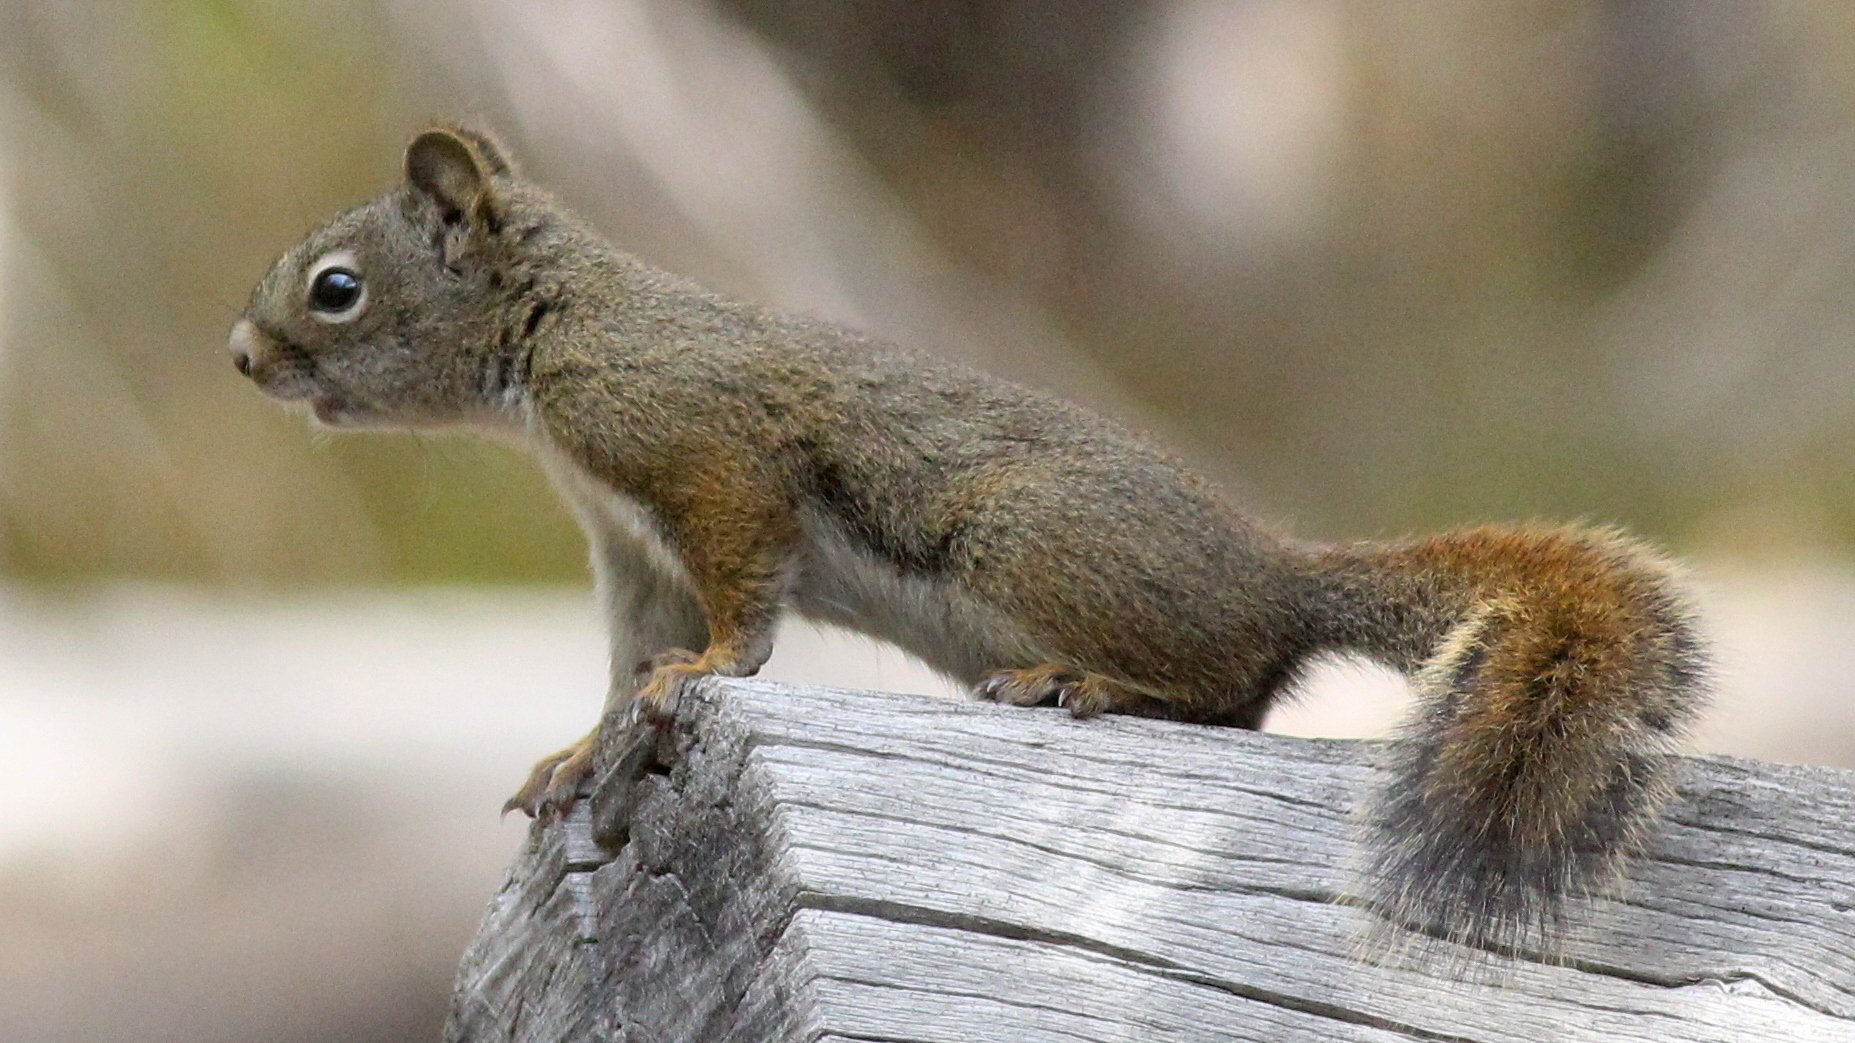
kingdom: Animalia
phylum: Chordata
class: Mammalia
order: Rodentia
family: Sciuridae
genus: Tamiasciurus
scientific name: Tamiasciurus hudsonicus
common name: Red squirrel
